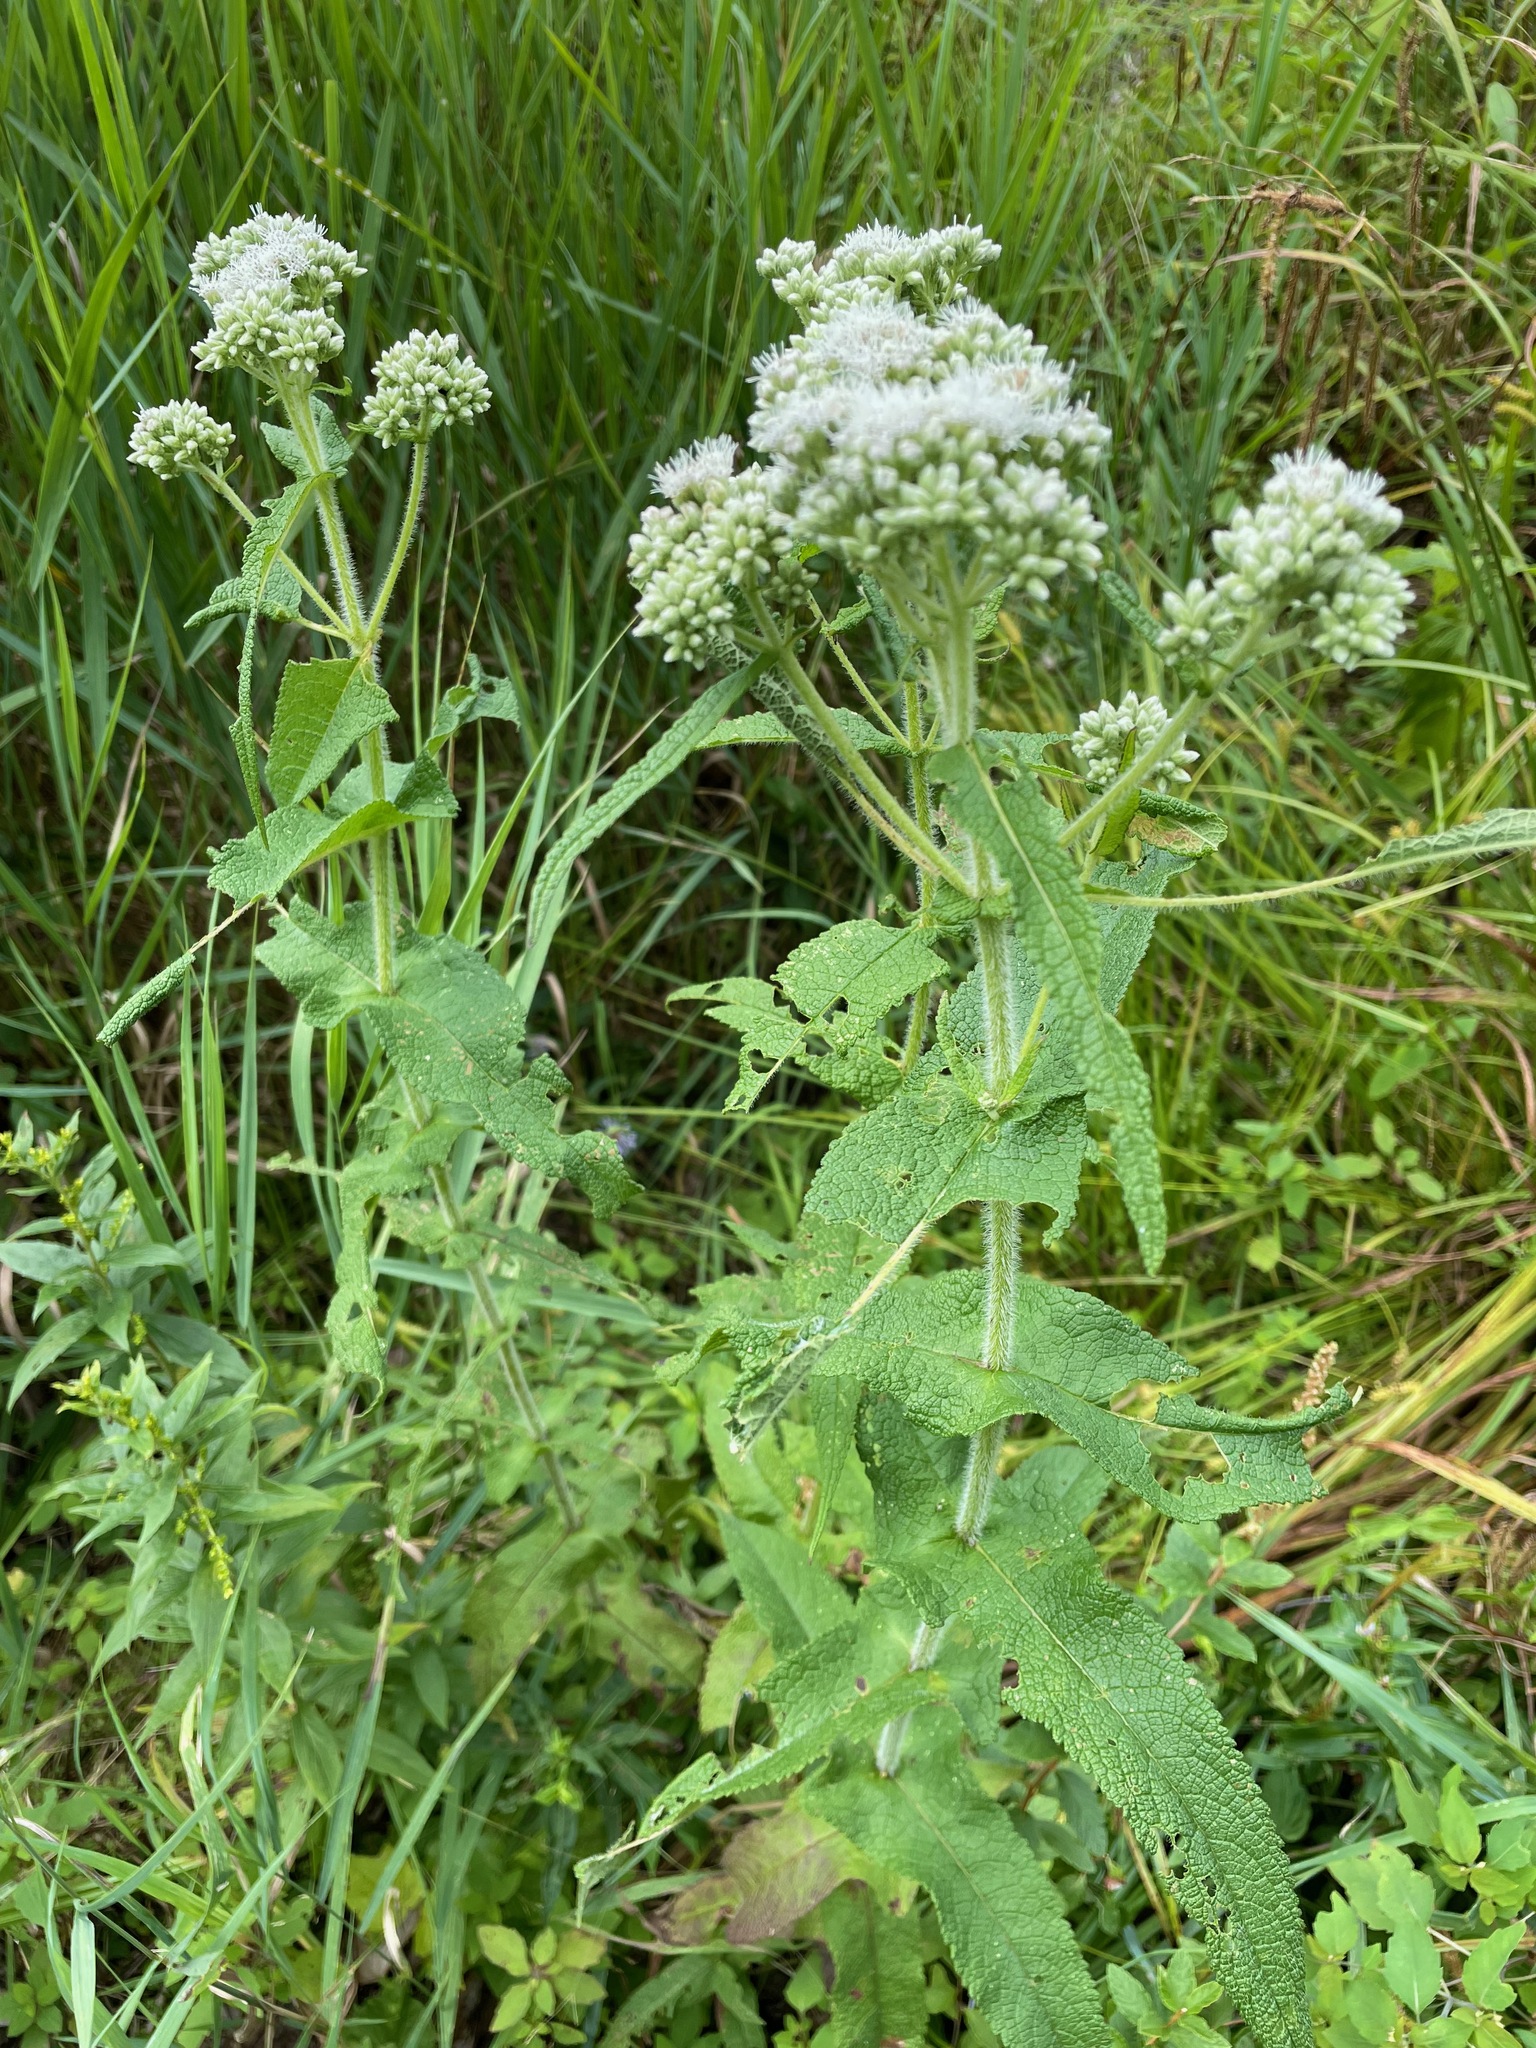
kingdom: Plantae
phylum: Tracheophyta
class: Magnoliopsida
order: Asterales
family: Asteraceae
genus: Eupatorium
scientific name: Eupatorium perfoliatum
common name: Boneset
